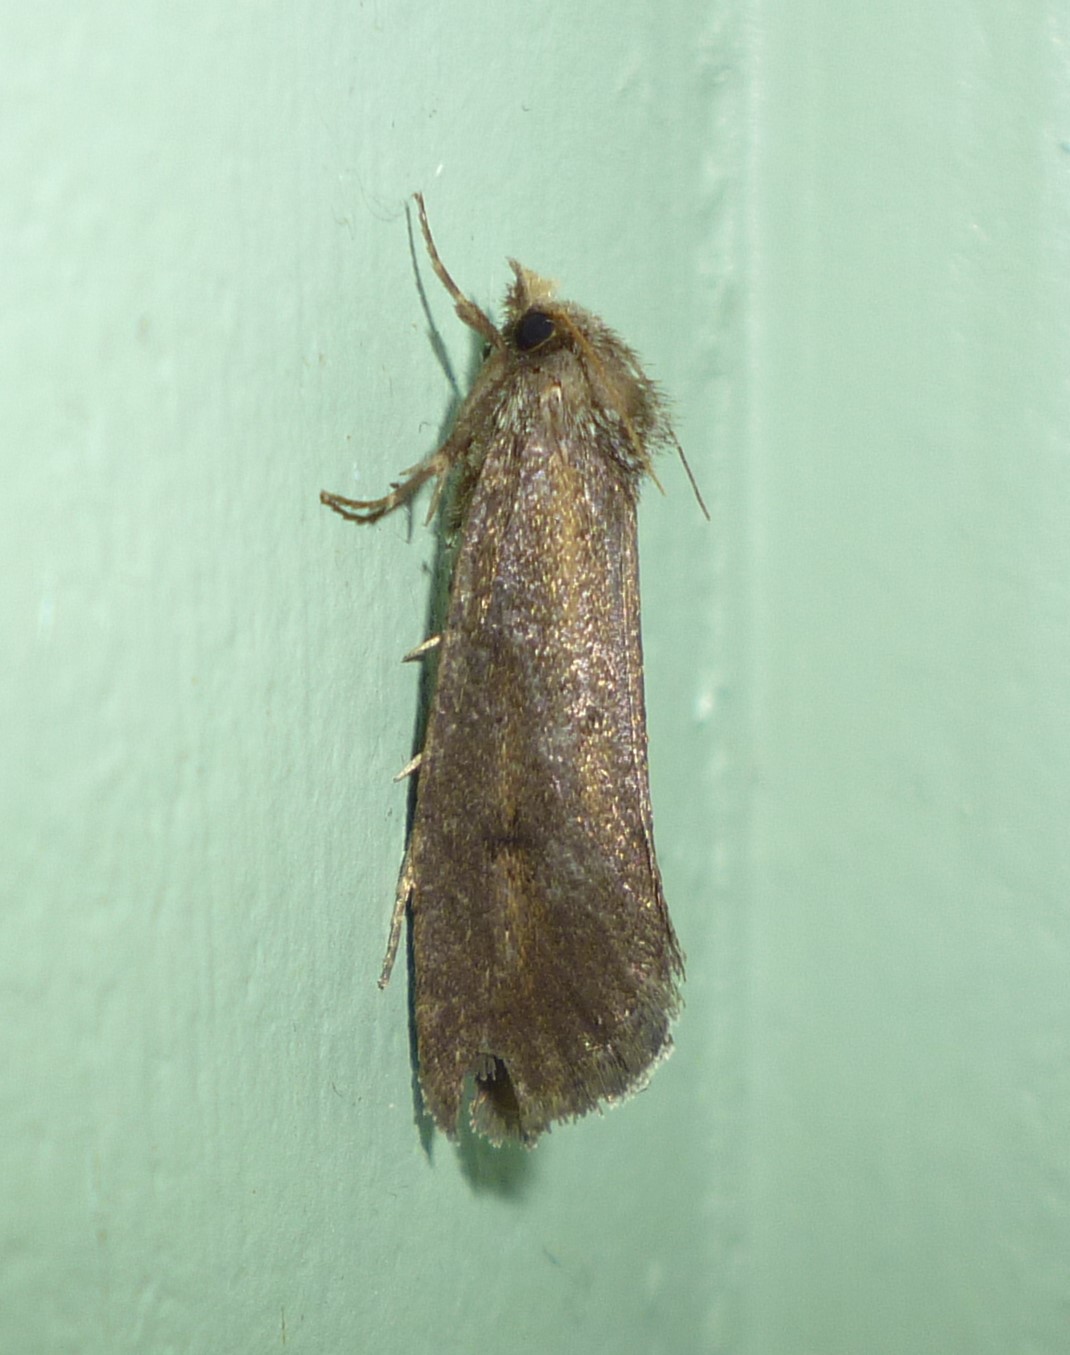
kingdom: Animalia
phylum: Arthropoda
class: Insecta
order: Lepidoptera
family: Tineidae
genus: Acrolophus
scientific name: Acrolophus popeanella
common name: Clemens' grass tubeworm moth
